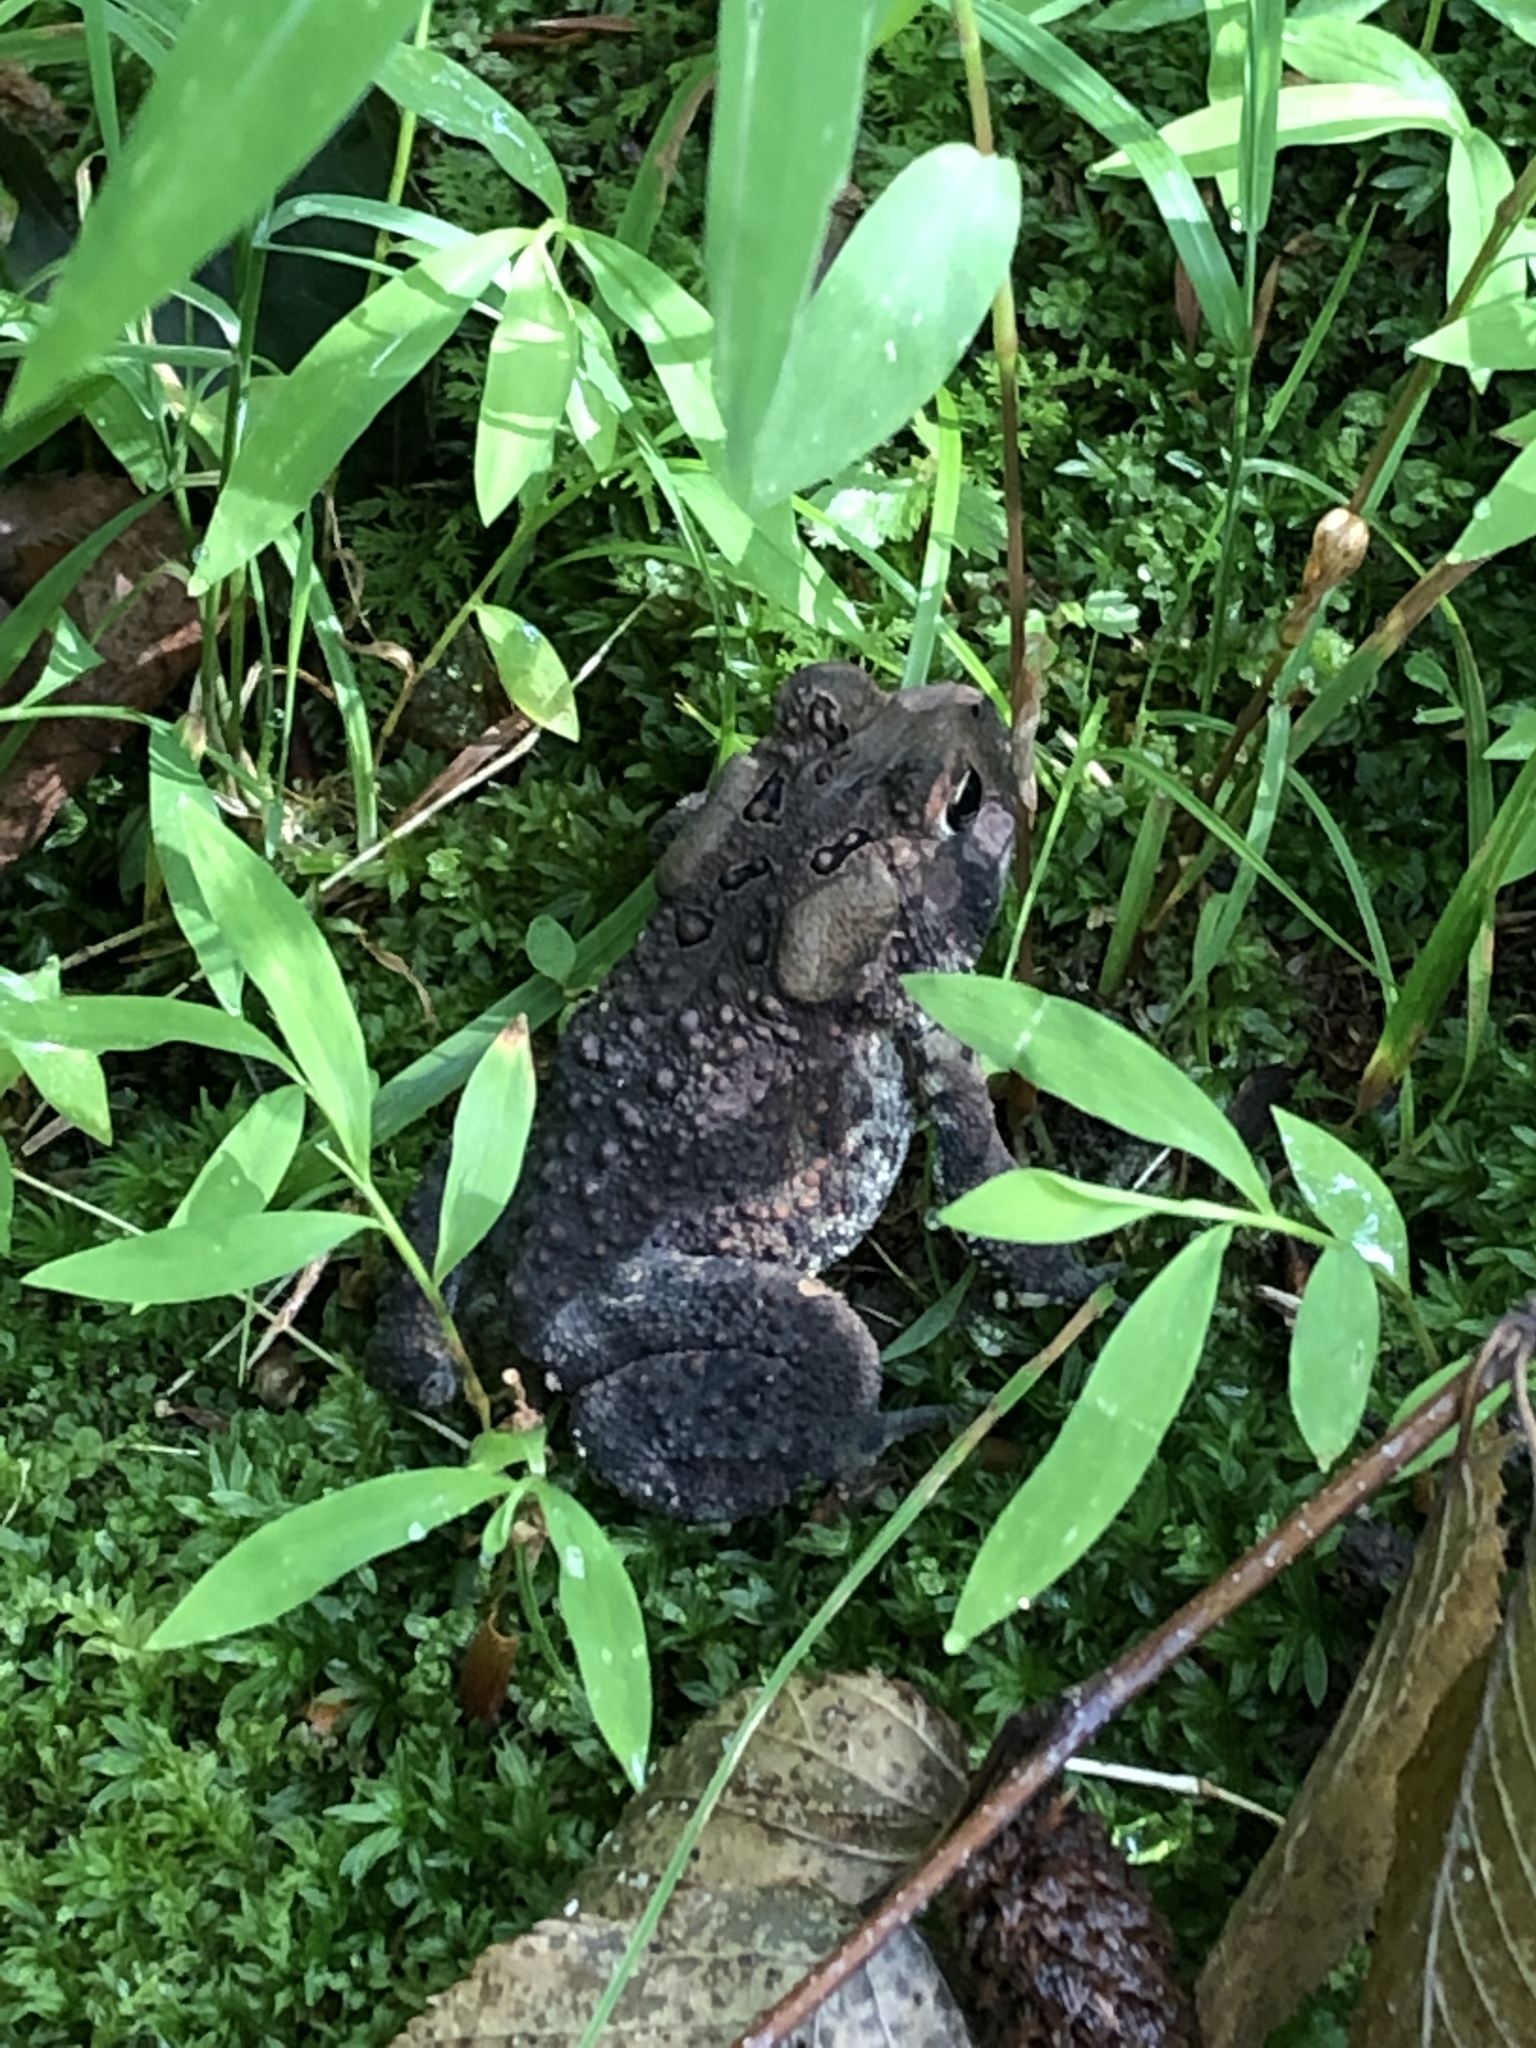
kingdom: Animalia
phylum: Chordata
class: Amphibia
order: Anura
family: Bufonidae
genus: Anaxyrus
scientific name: Anaxyrus americanus
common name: American toad
